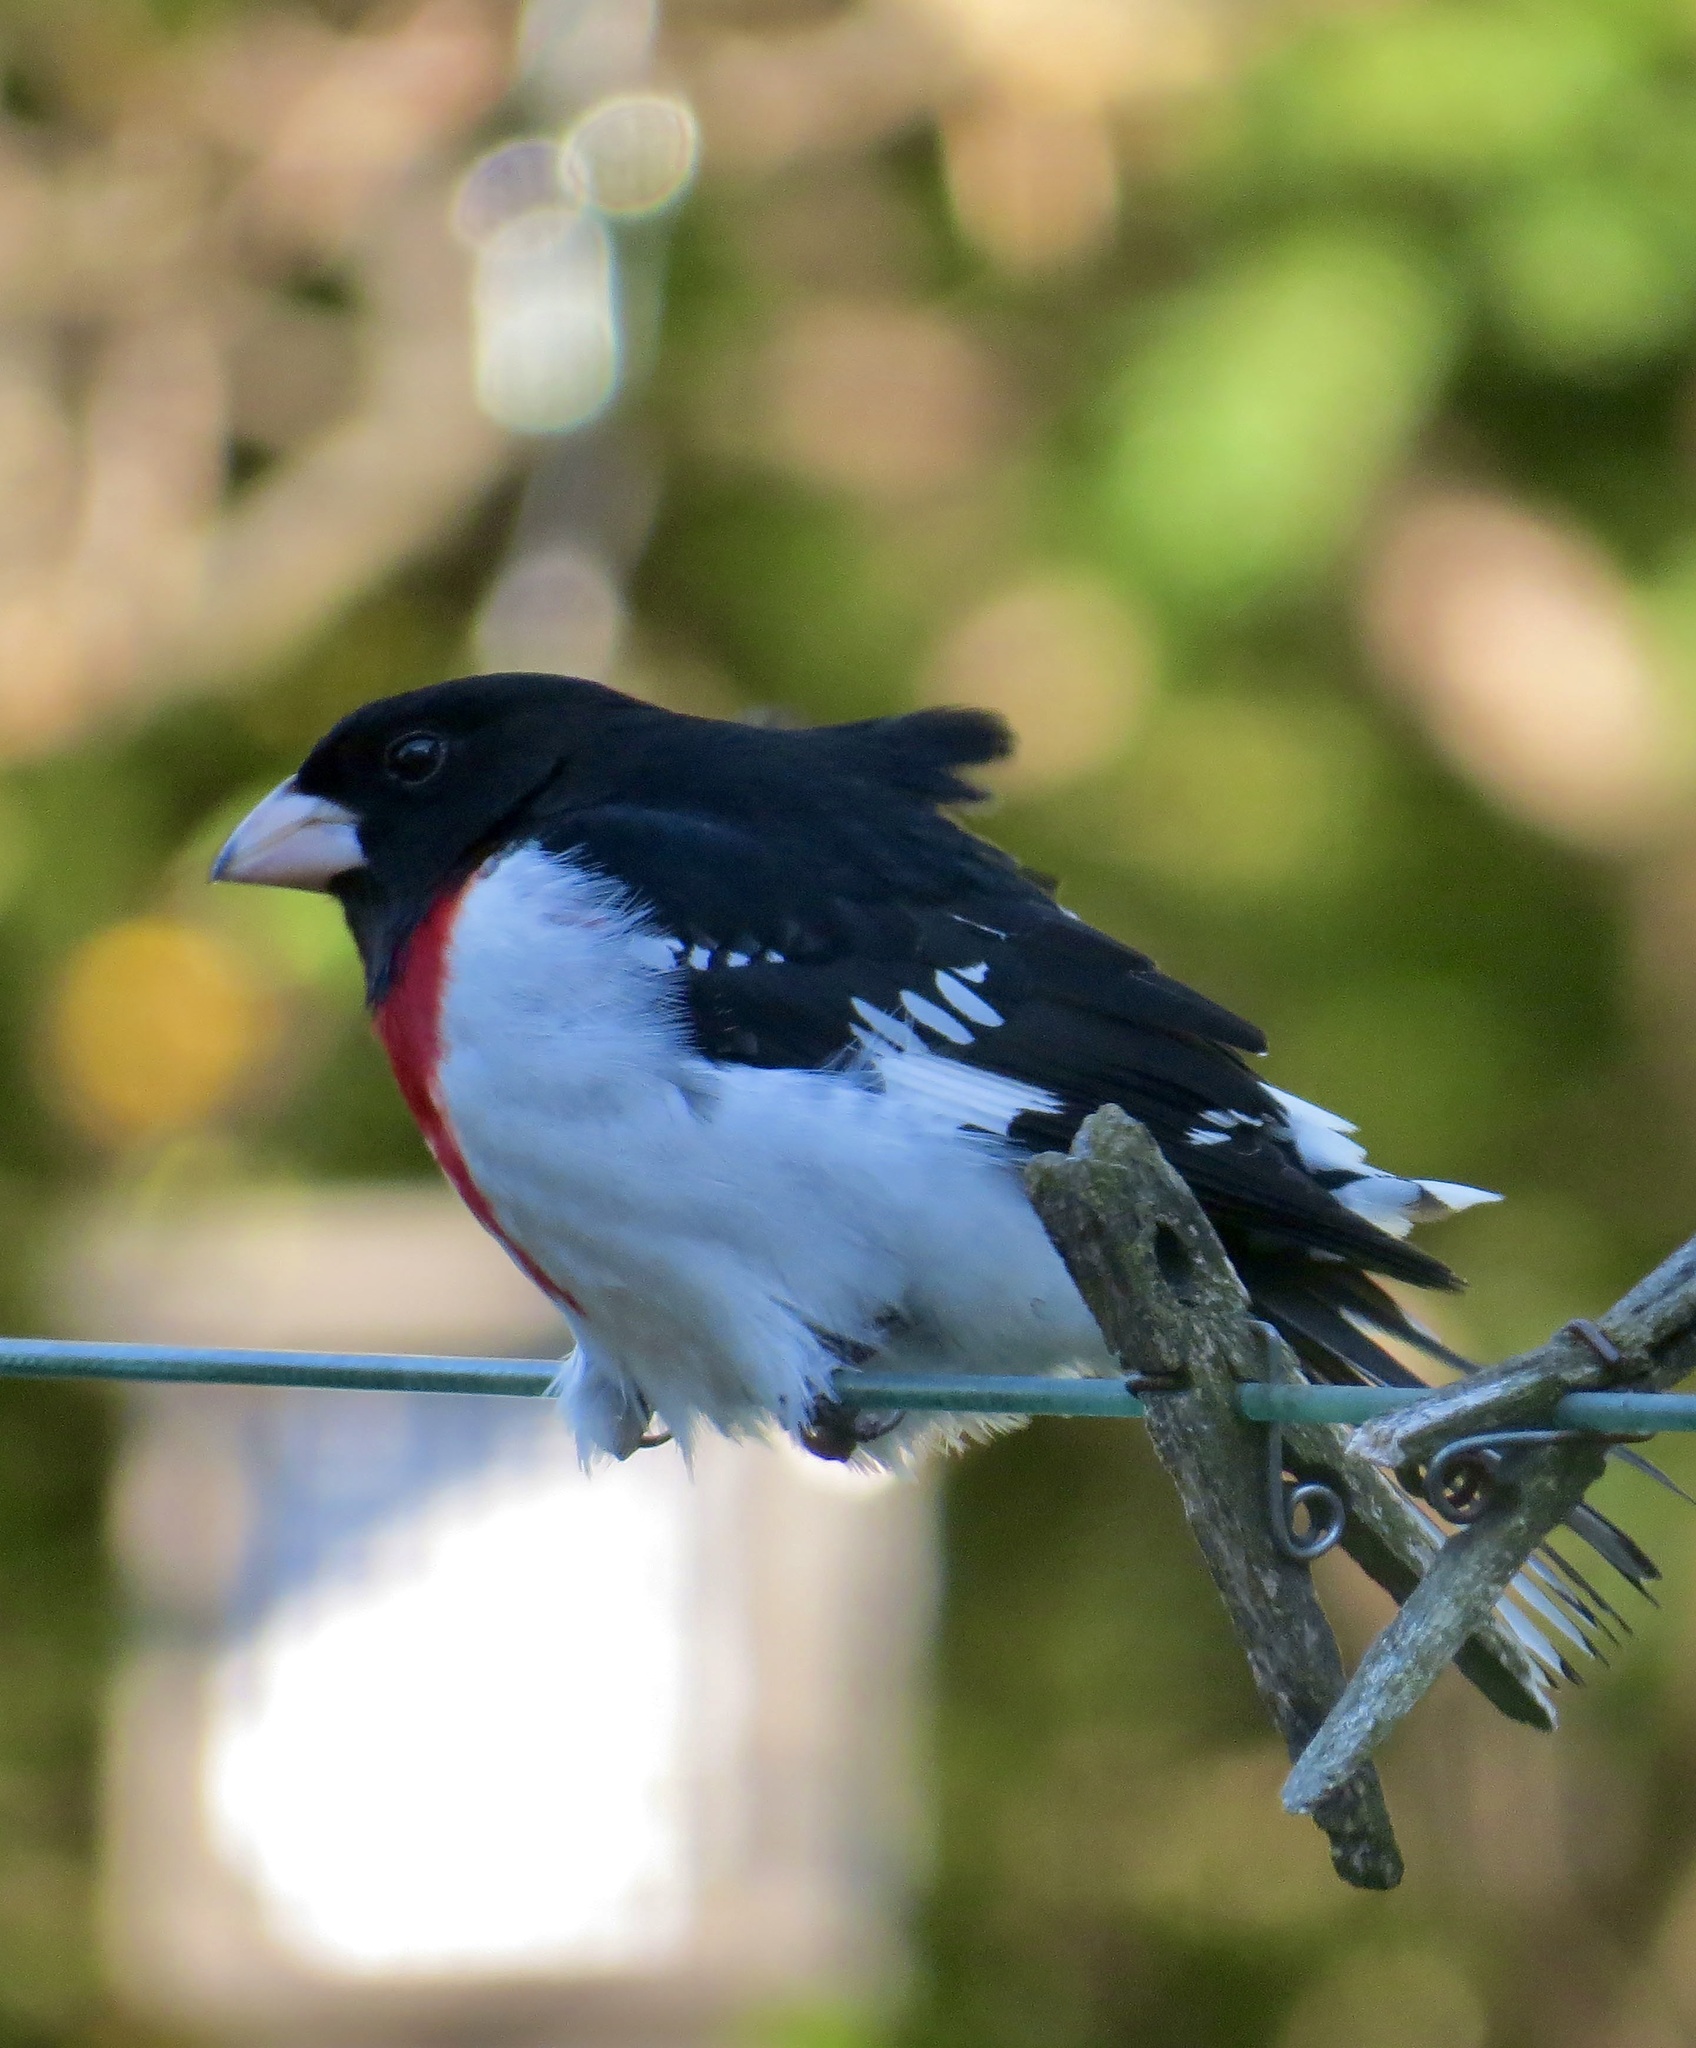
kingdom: Animalia
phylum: Chordata
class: Aves
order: Passeriformes
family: Cardinalidae
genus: Pheucticus
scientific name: Pheucticus ludovicianus
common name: Rose-breasted grosbeak
